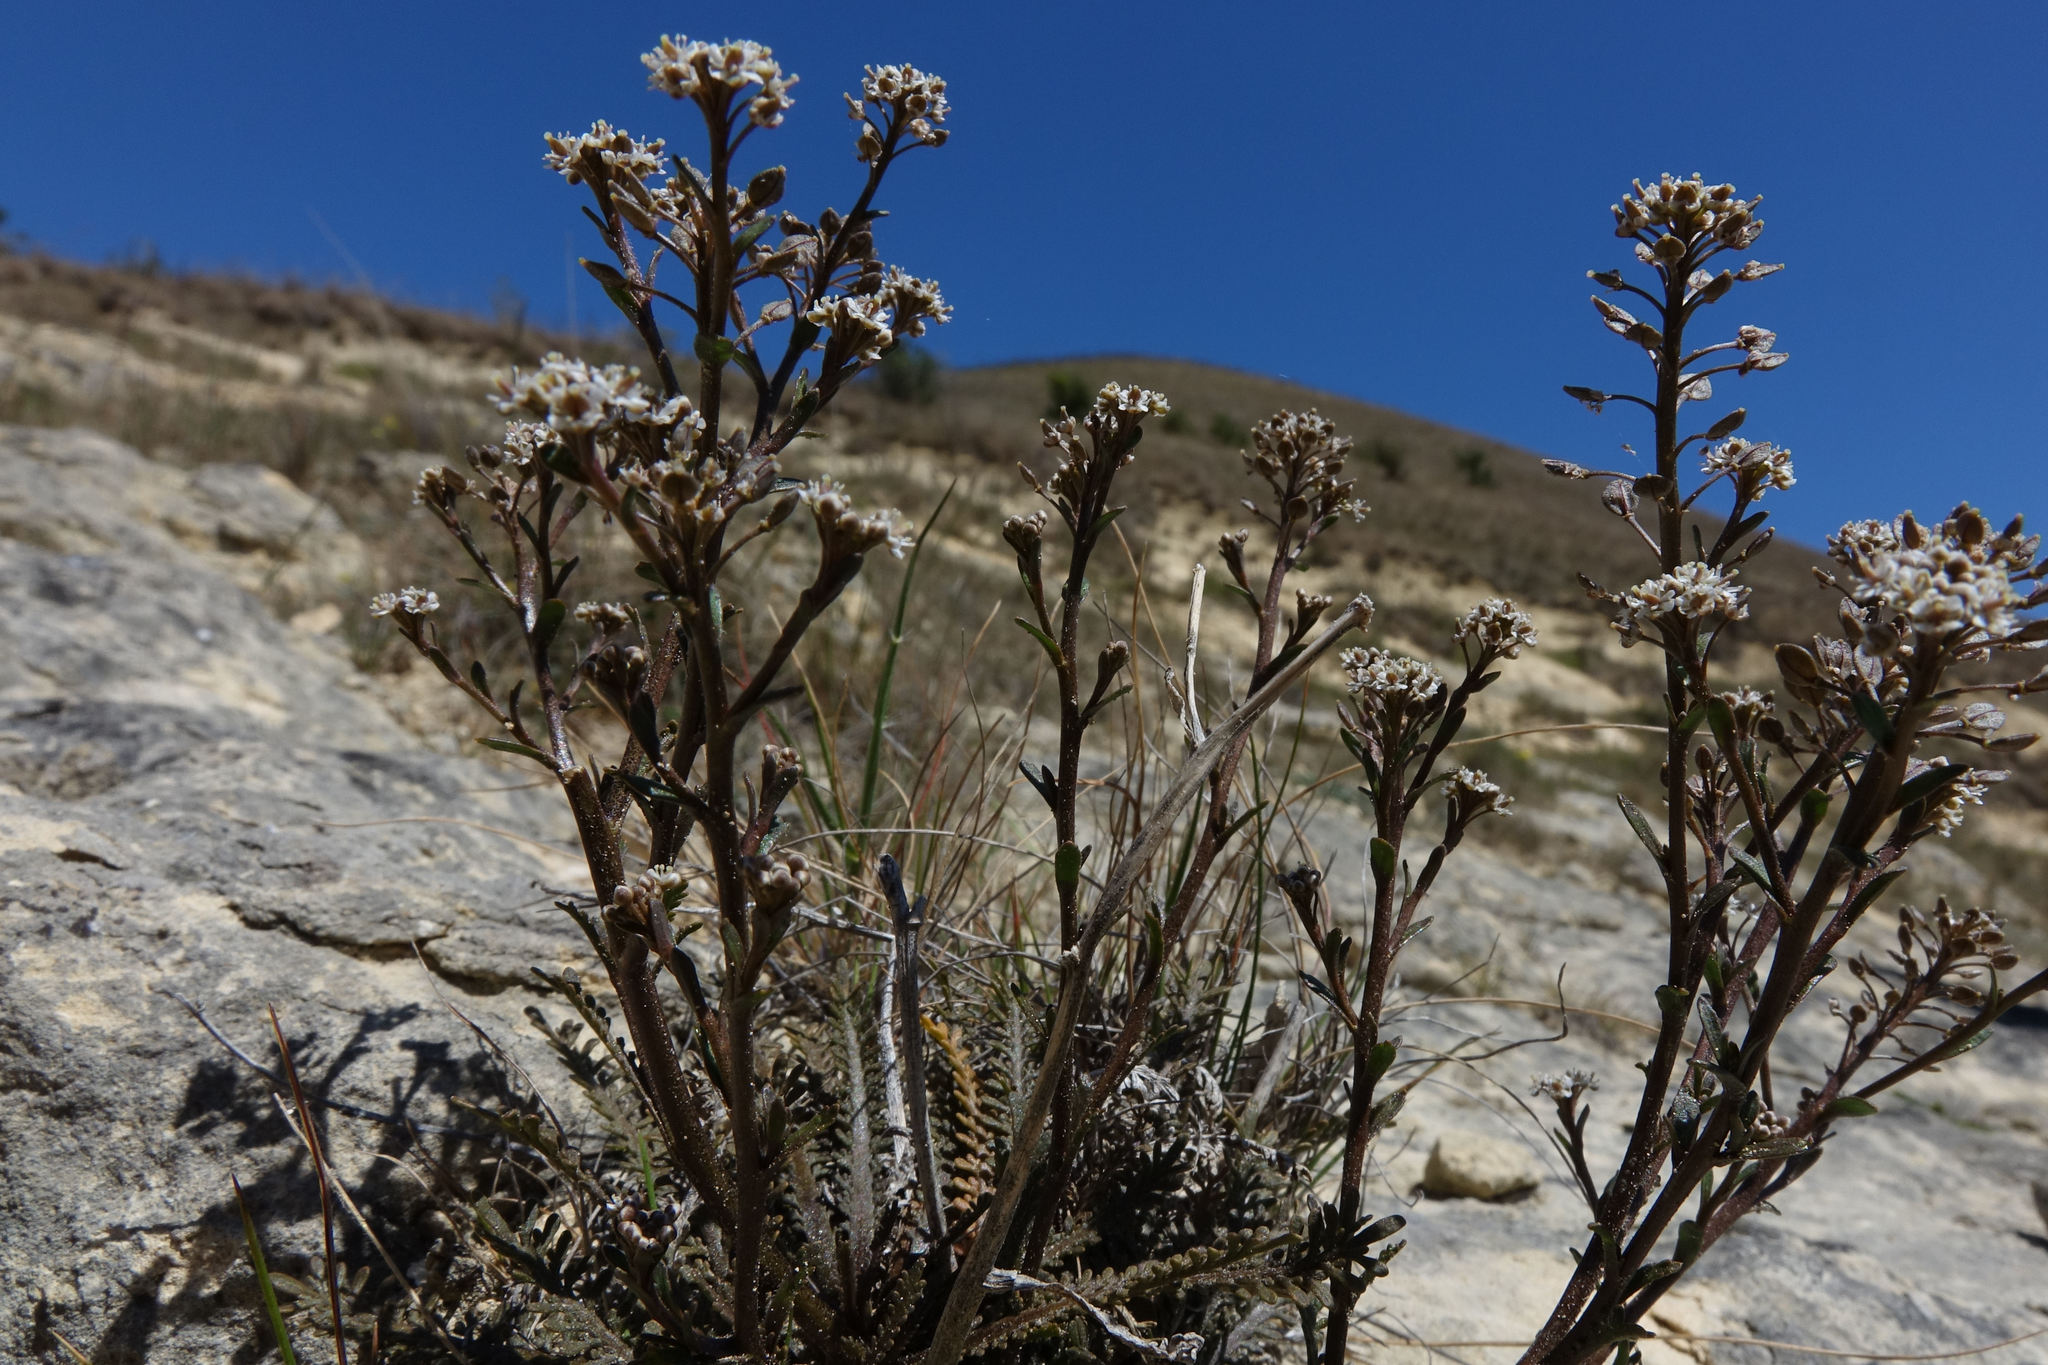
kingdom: Plantae
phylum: Tracheophyta
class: Magnoliopsida
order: Brassicales
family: Brassicaceae
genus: Lepidium
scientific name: Lepidium sisymbrioides
